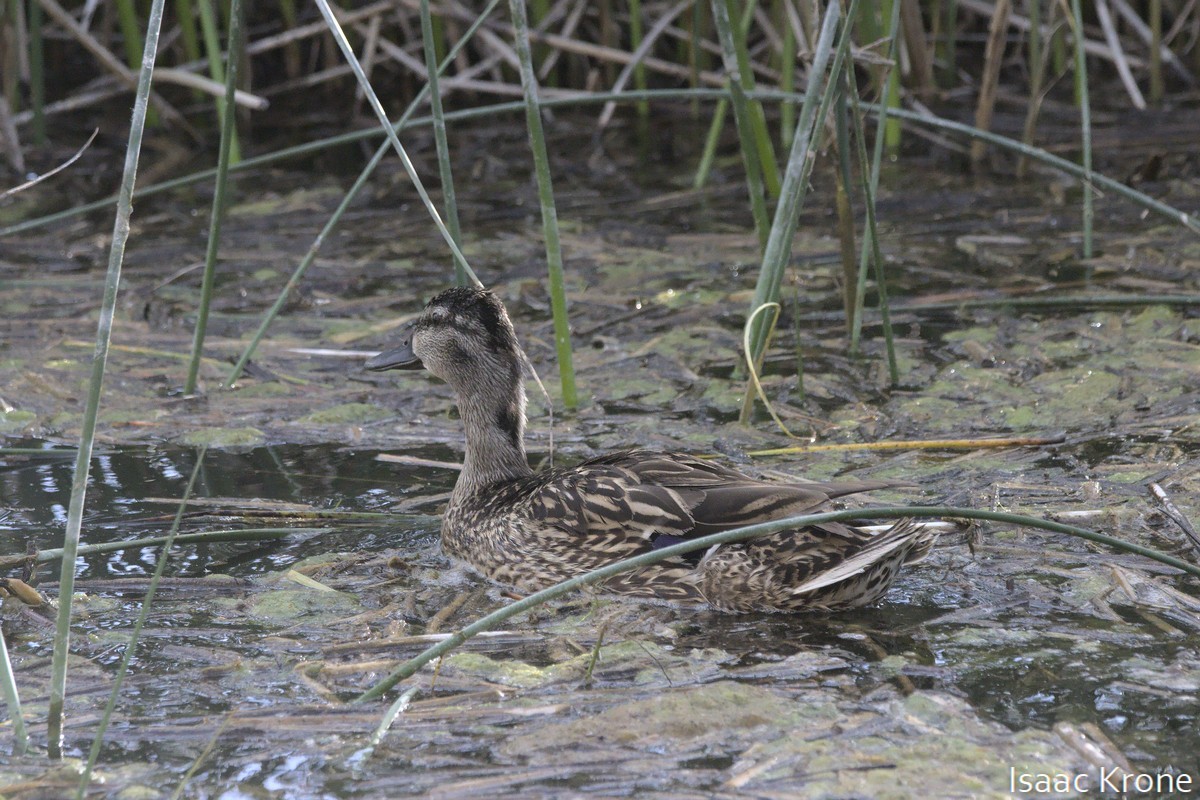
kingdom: Animalia
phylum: Chordata
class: Aves
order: Anseriformes
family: Anatidae
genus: Anas
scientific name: Anas platyrhynchos
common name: Mallard
